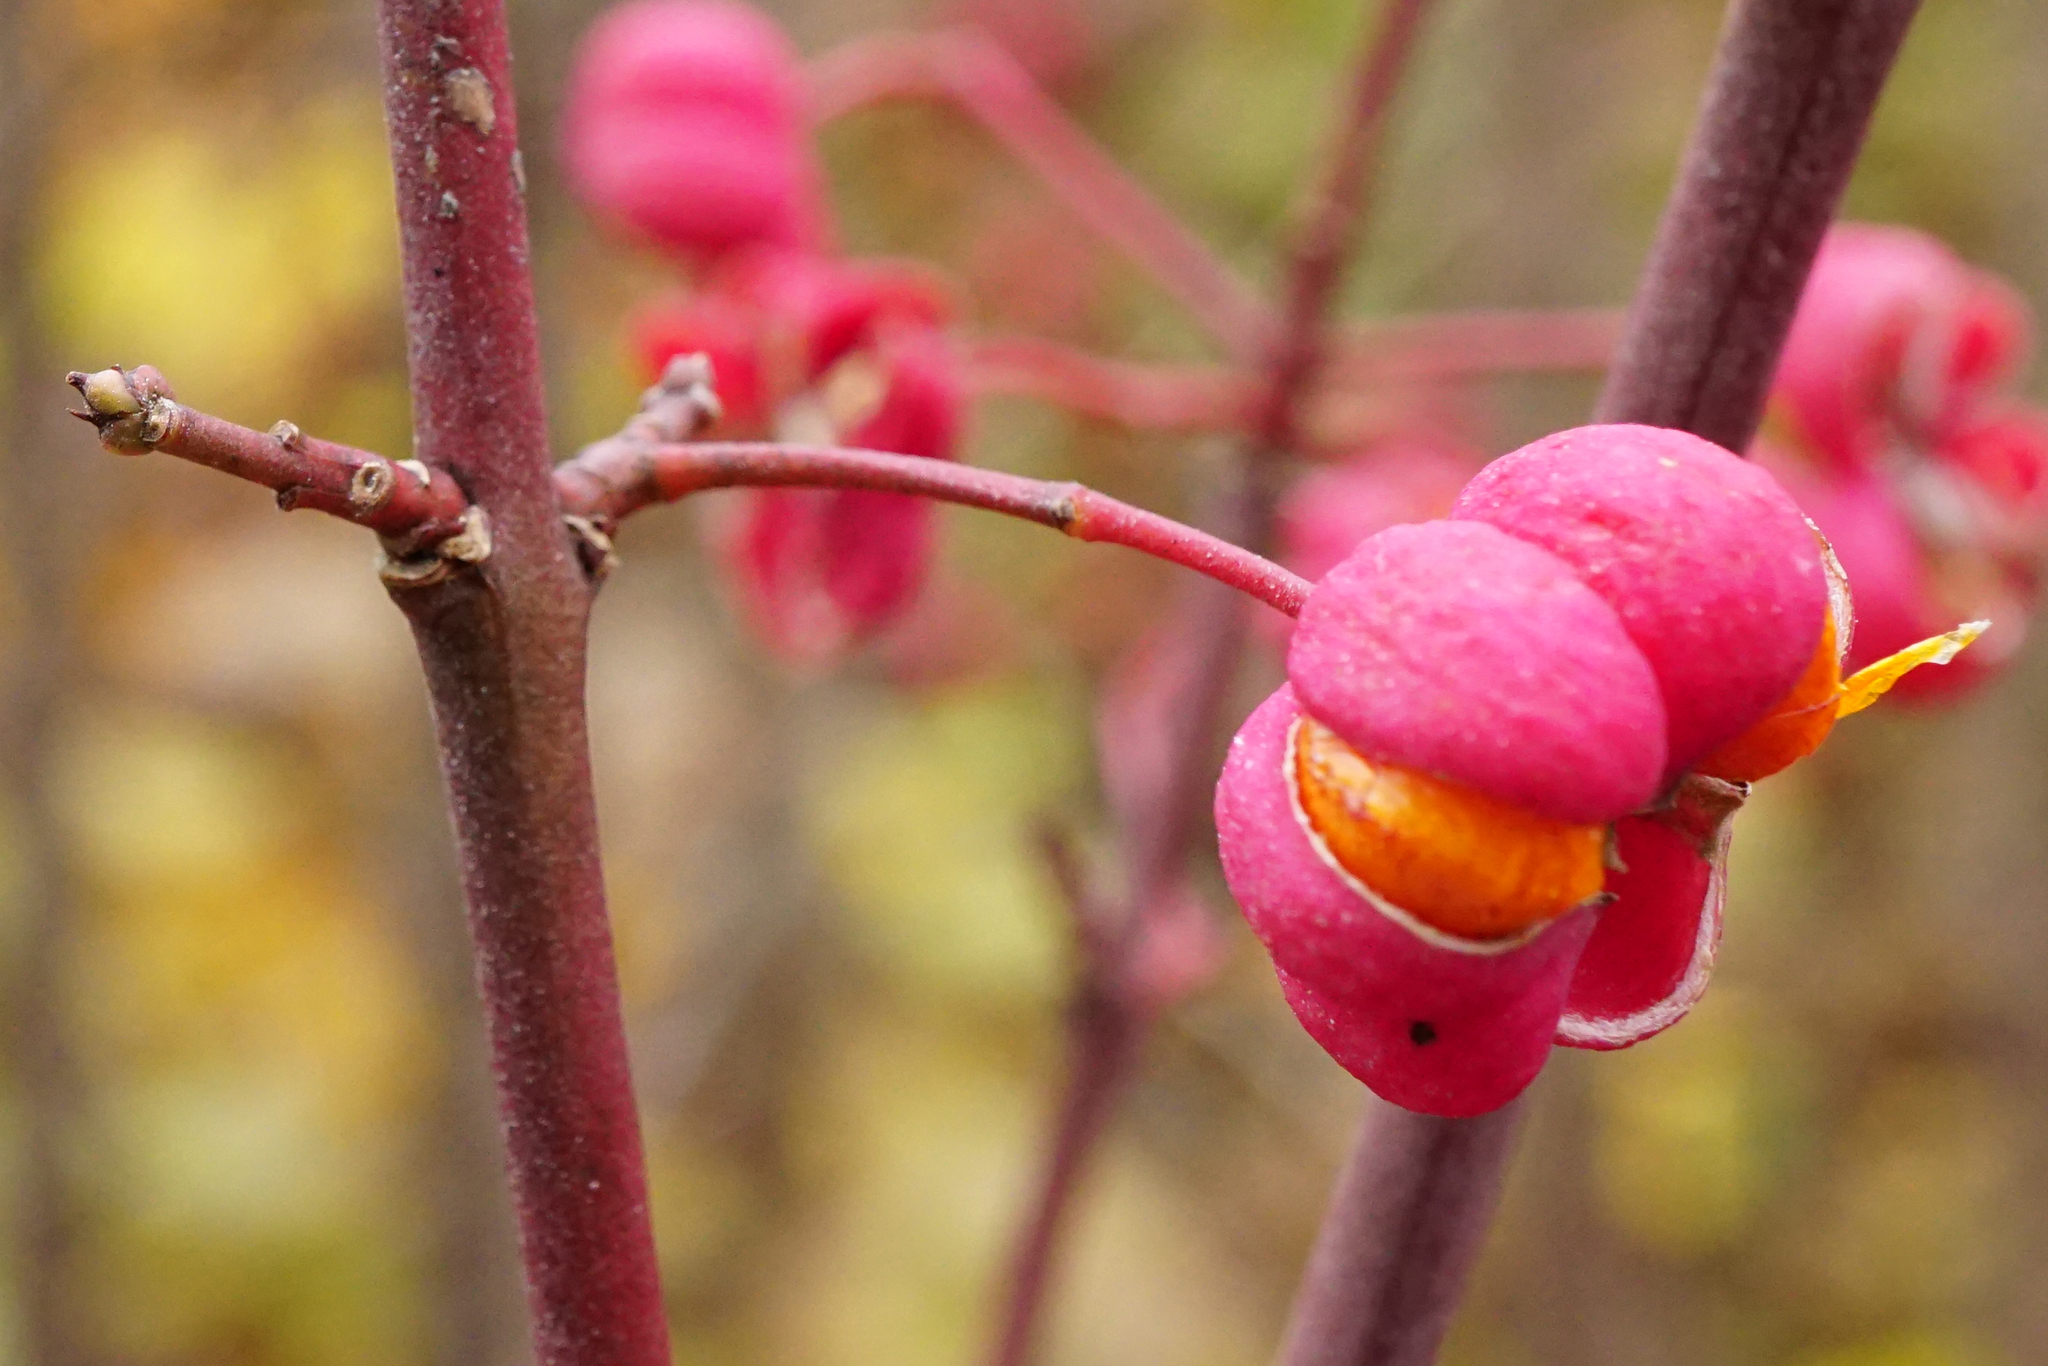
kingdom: Plantae
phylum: Tracheophyta
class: Magnoliopsida
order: Celastrales
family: Celastraceae
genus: Euonymus
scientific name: Euonymus europaeus
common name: Spindle
